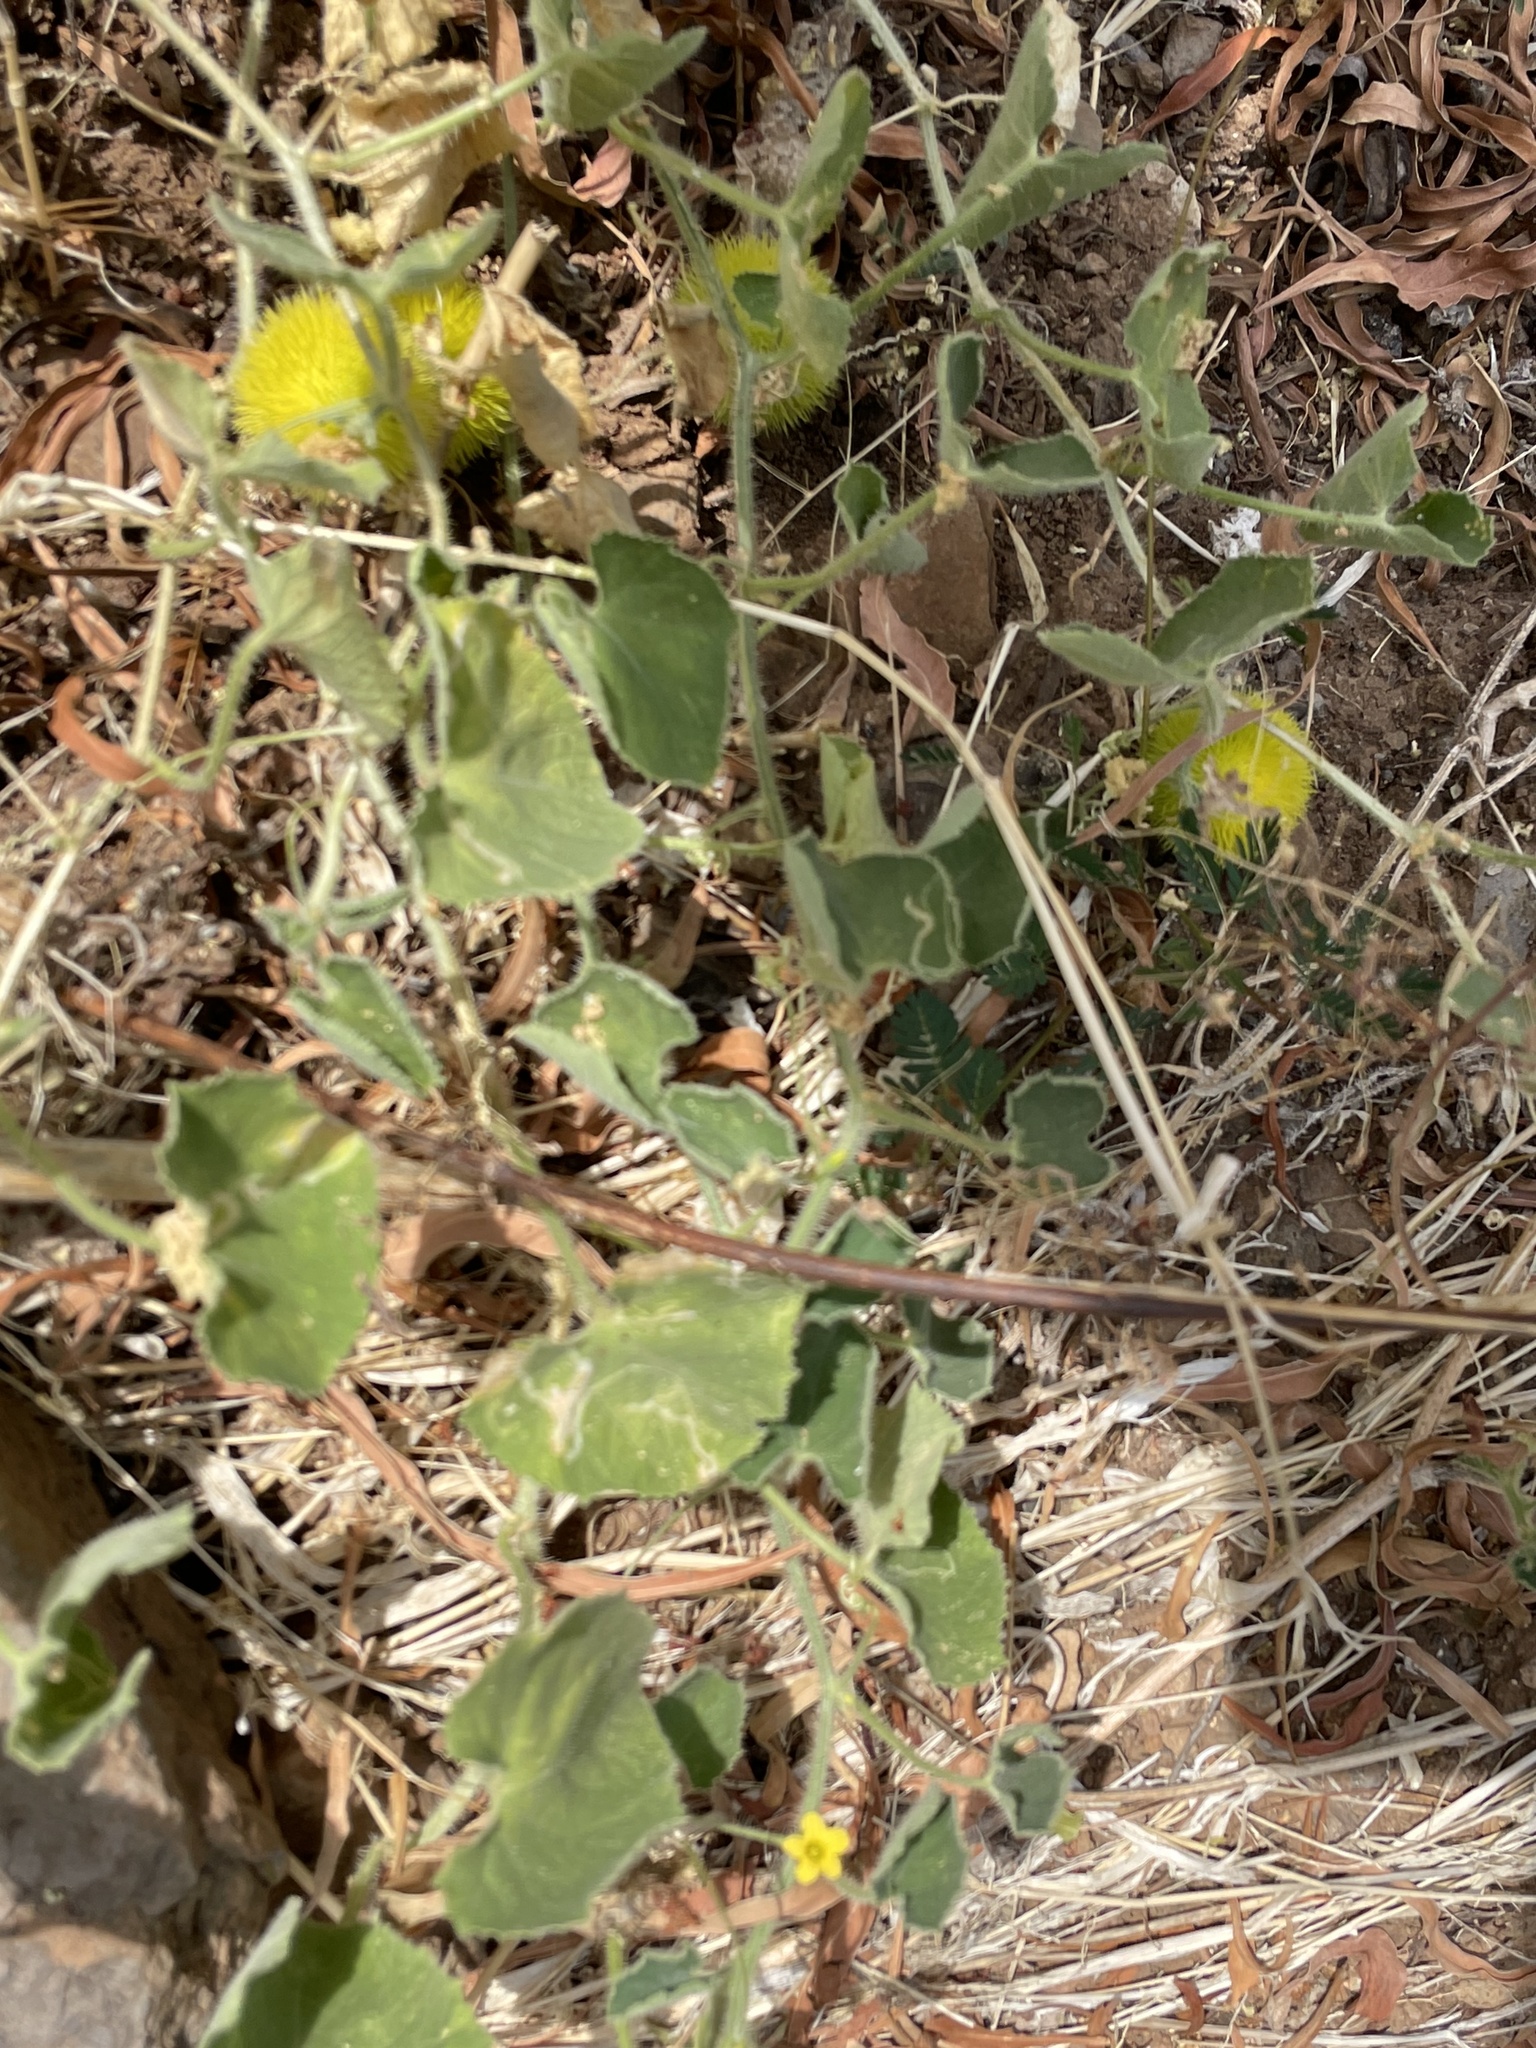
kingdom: Plantae
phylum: Tracheophyta
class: Magnoliopsida
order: Cucurbitales
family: Cucurbitaceae
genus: Cucumis
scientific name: Cucumis dipsaceus
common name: Hedgehog gourd
